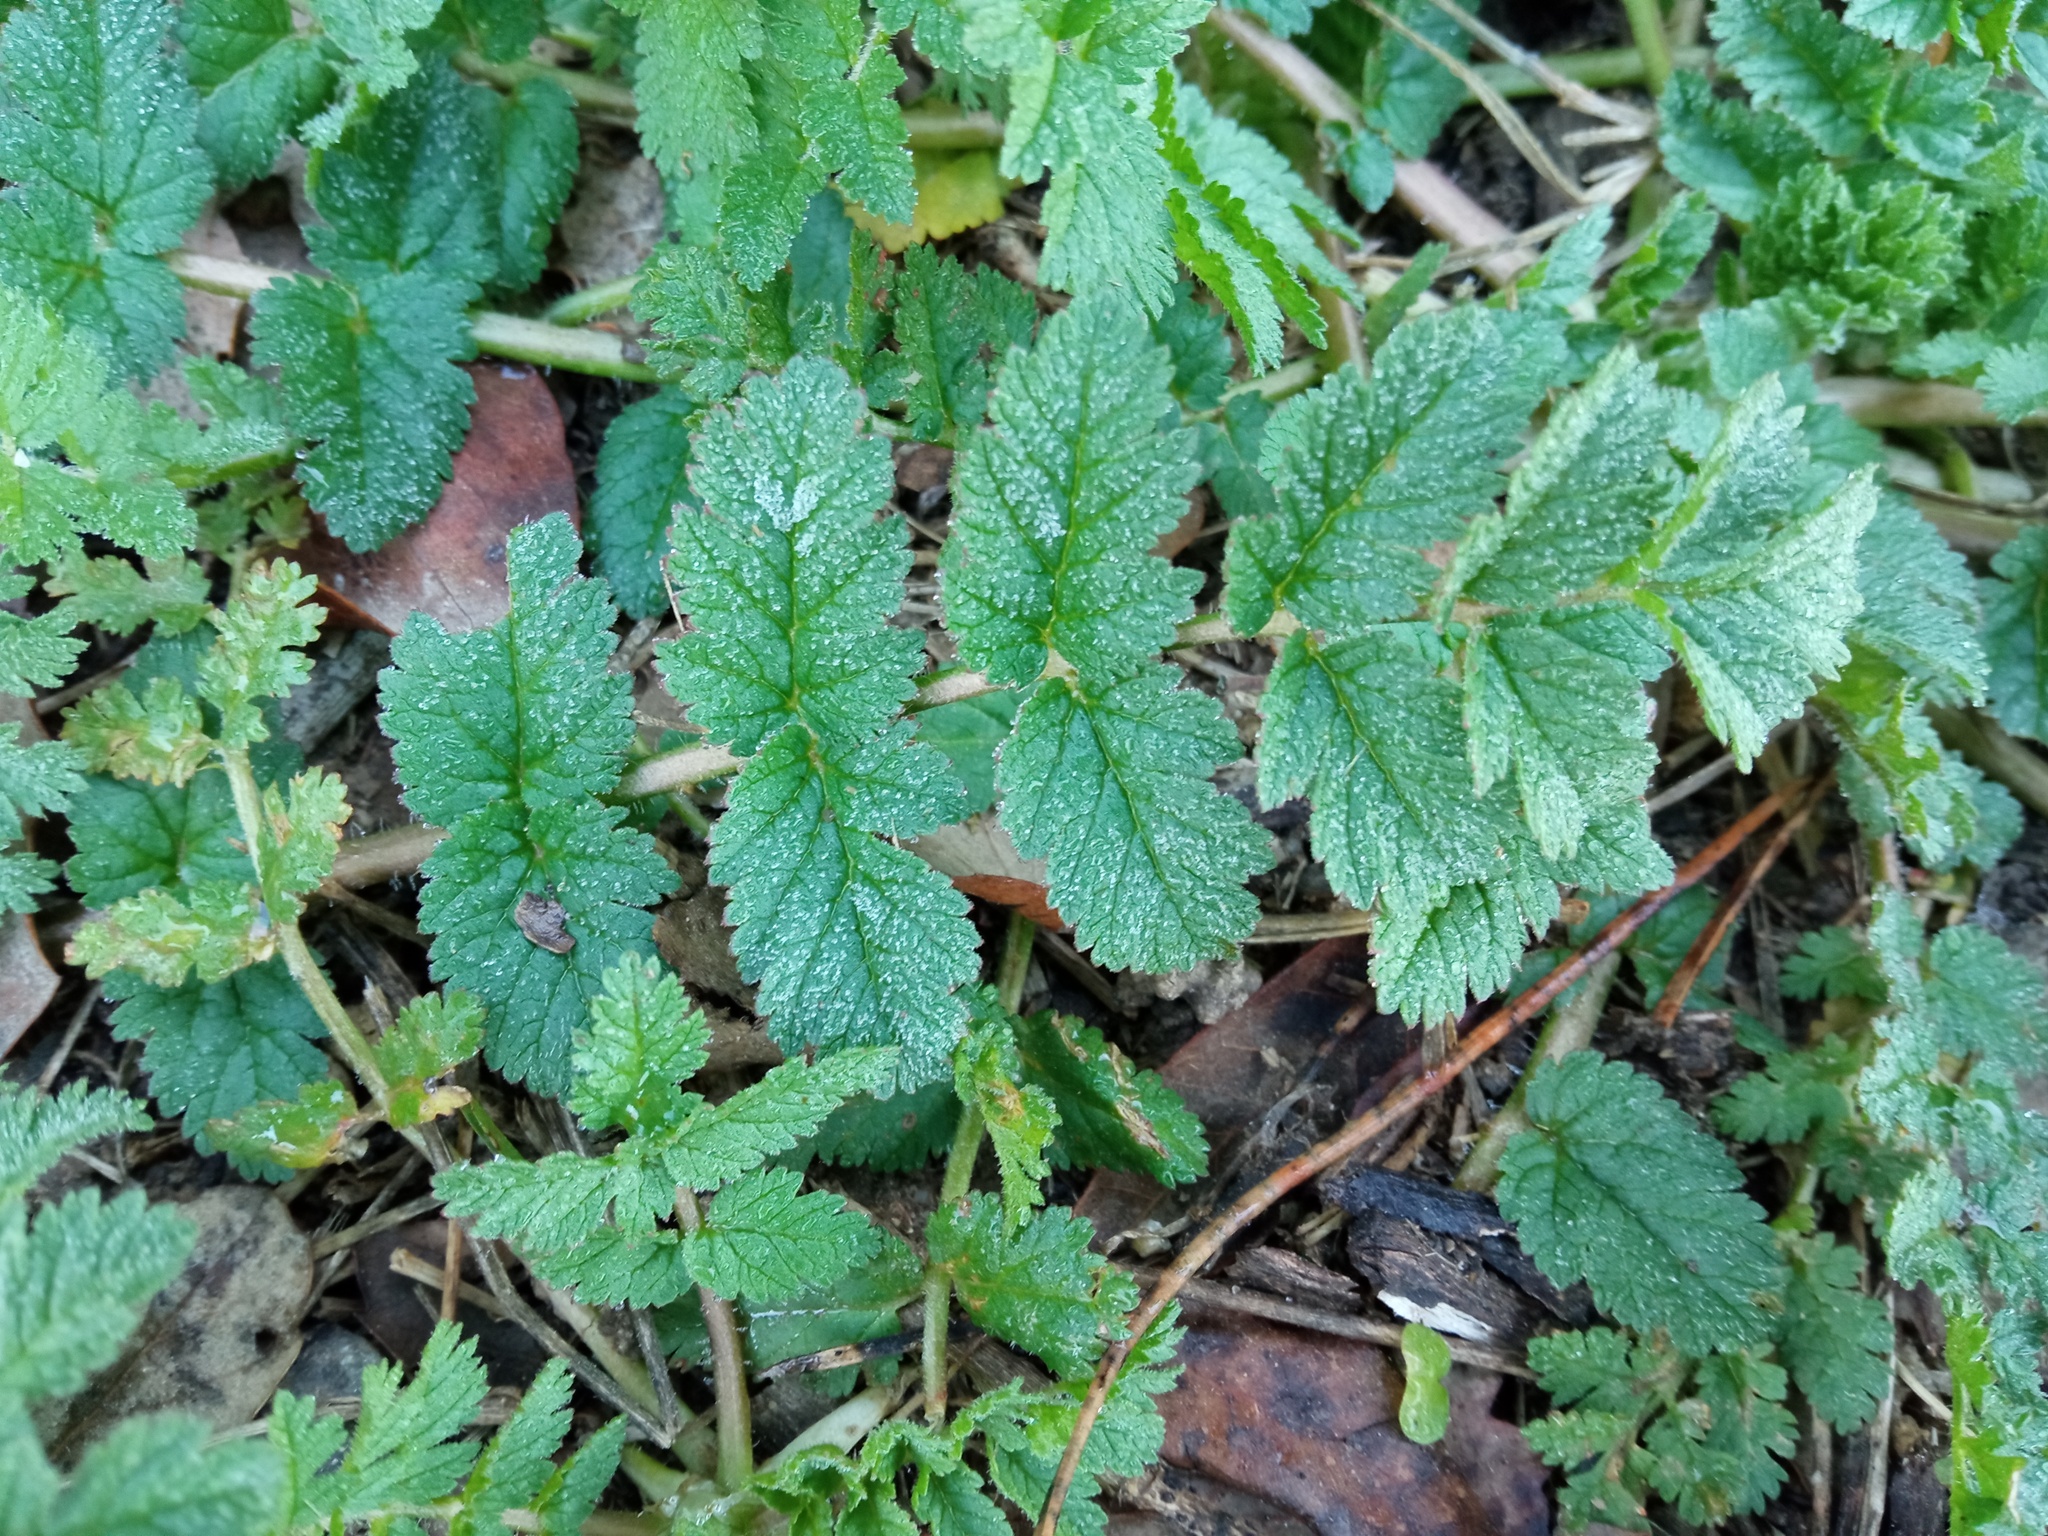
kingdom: Plantae
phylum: Tracheophyta
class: Magnoliopsida
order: Geraniales
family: Geraniaceae
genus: Erodium
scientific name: Erodium moschatum
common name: Musk stork's-bill
